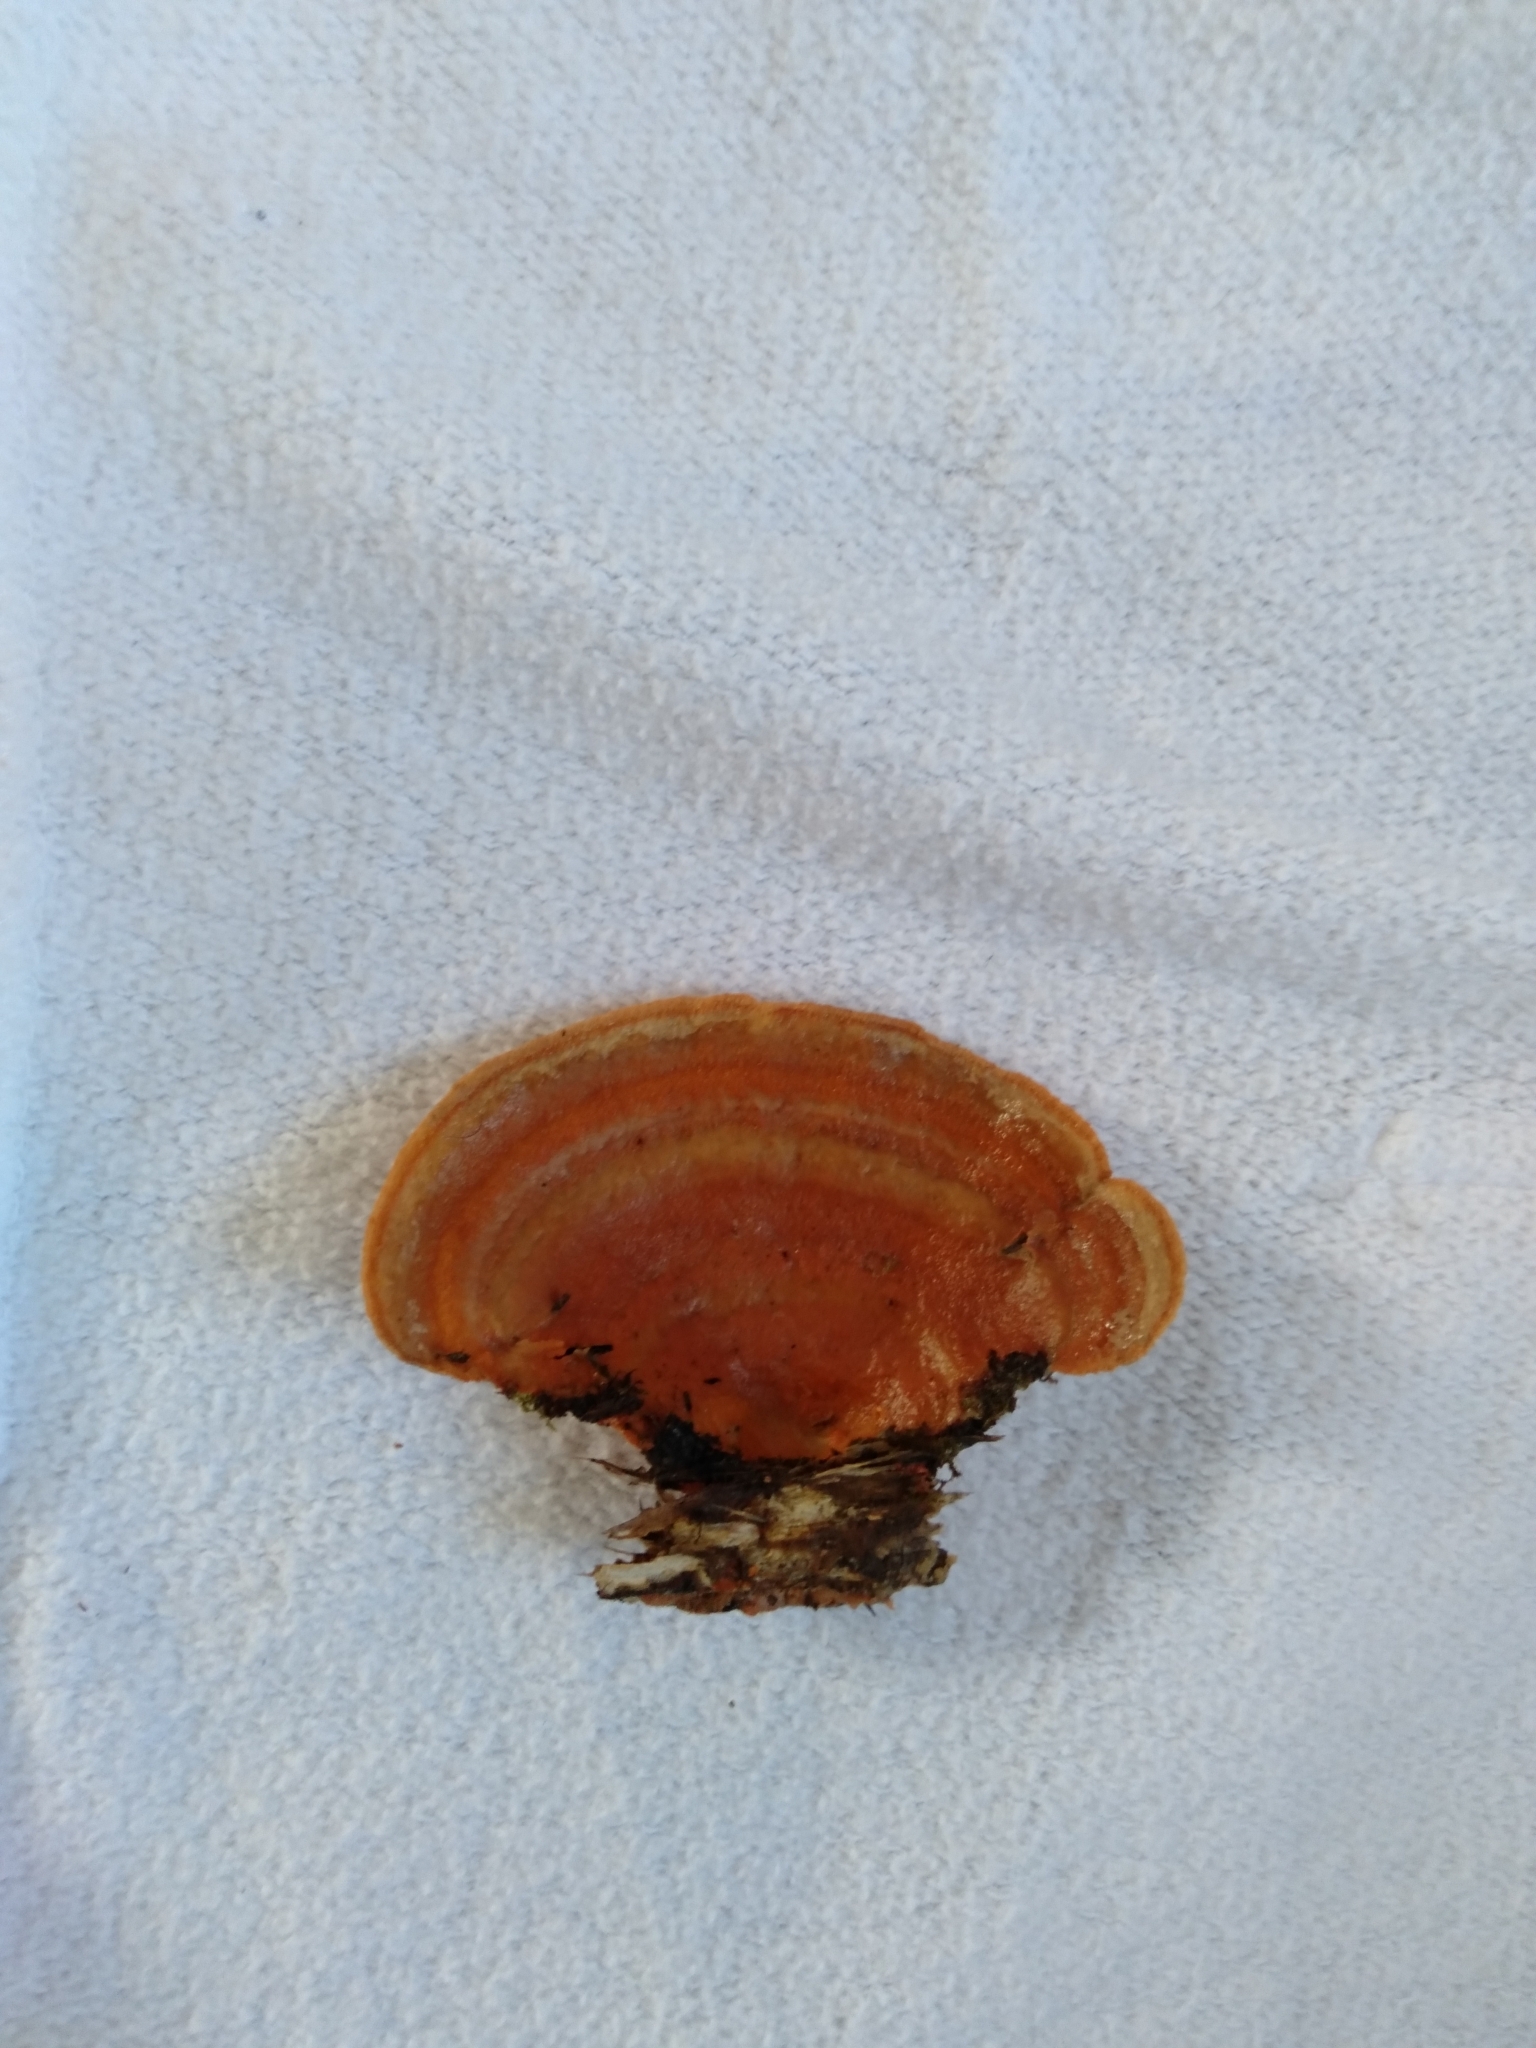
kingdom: Fungi
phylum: Basidiomycota
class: Agaricomycetes
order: Polyporales
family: Polyporaceae
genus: Trametes
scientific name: Trametes coccinea
